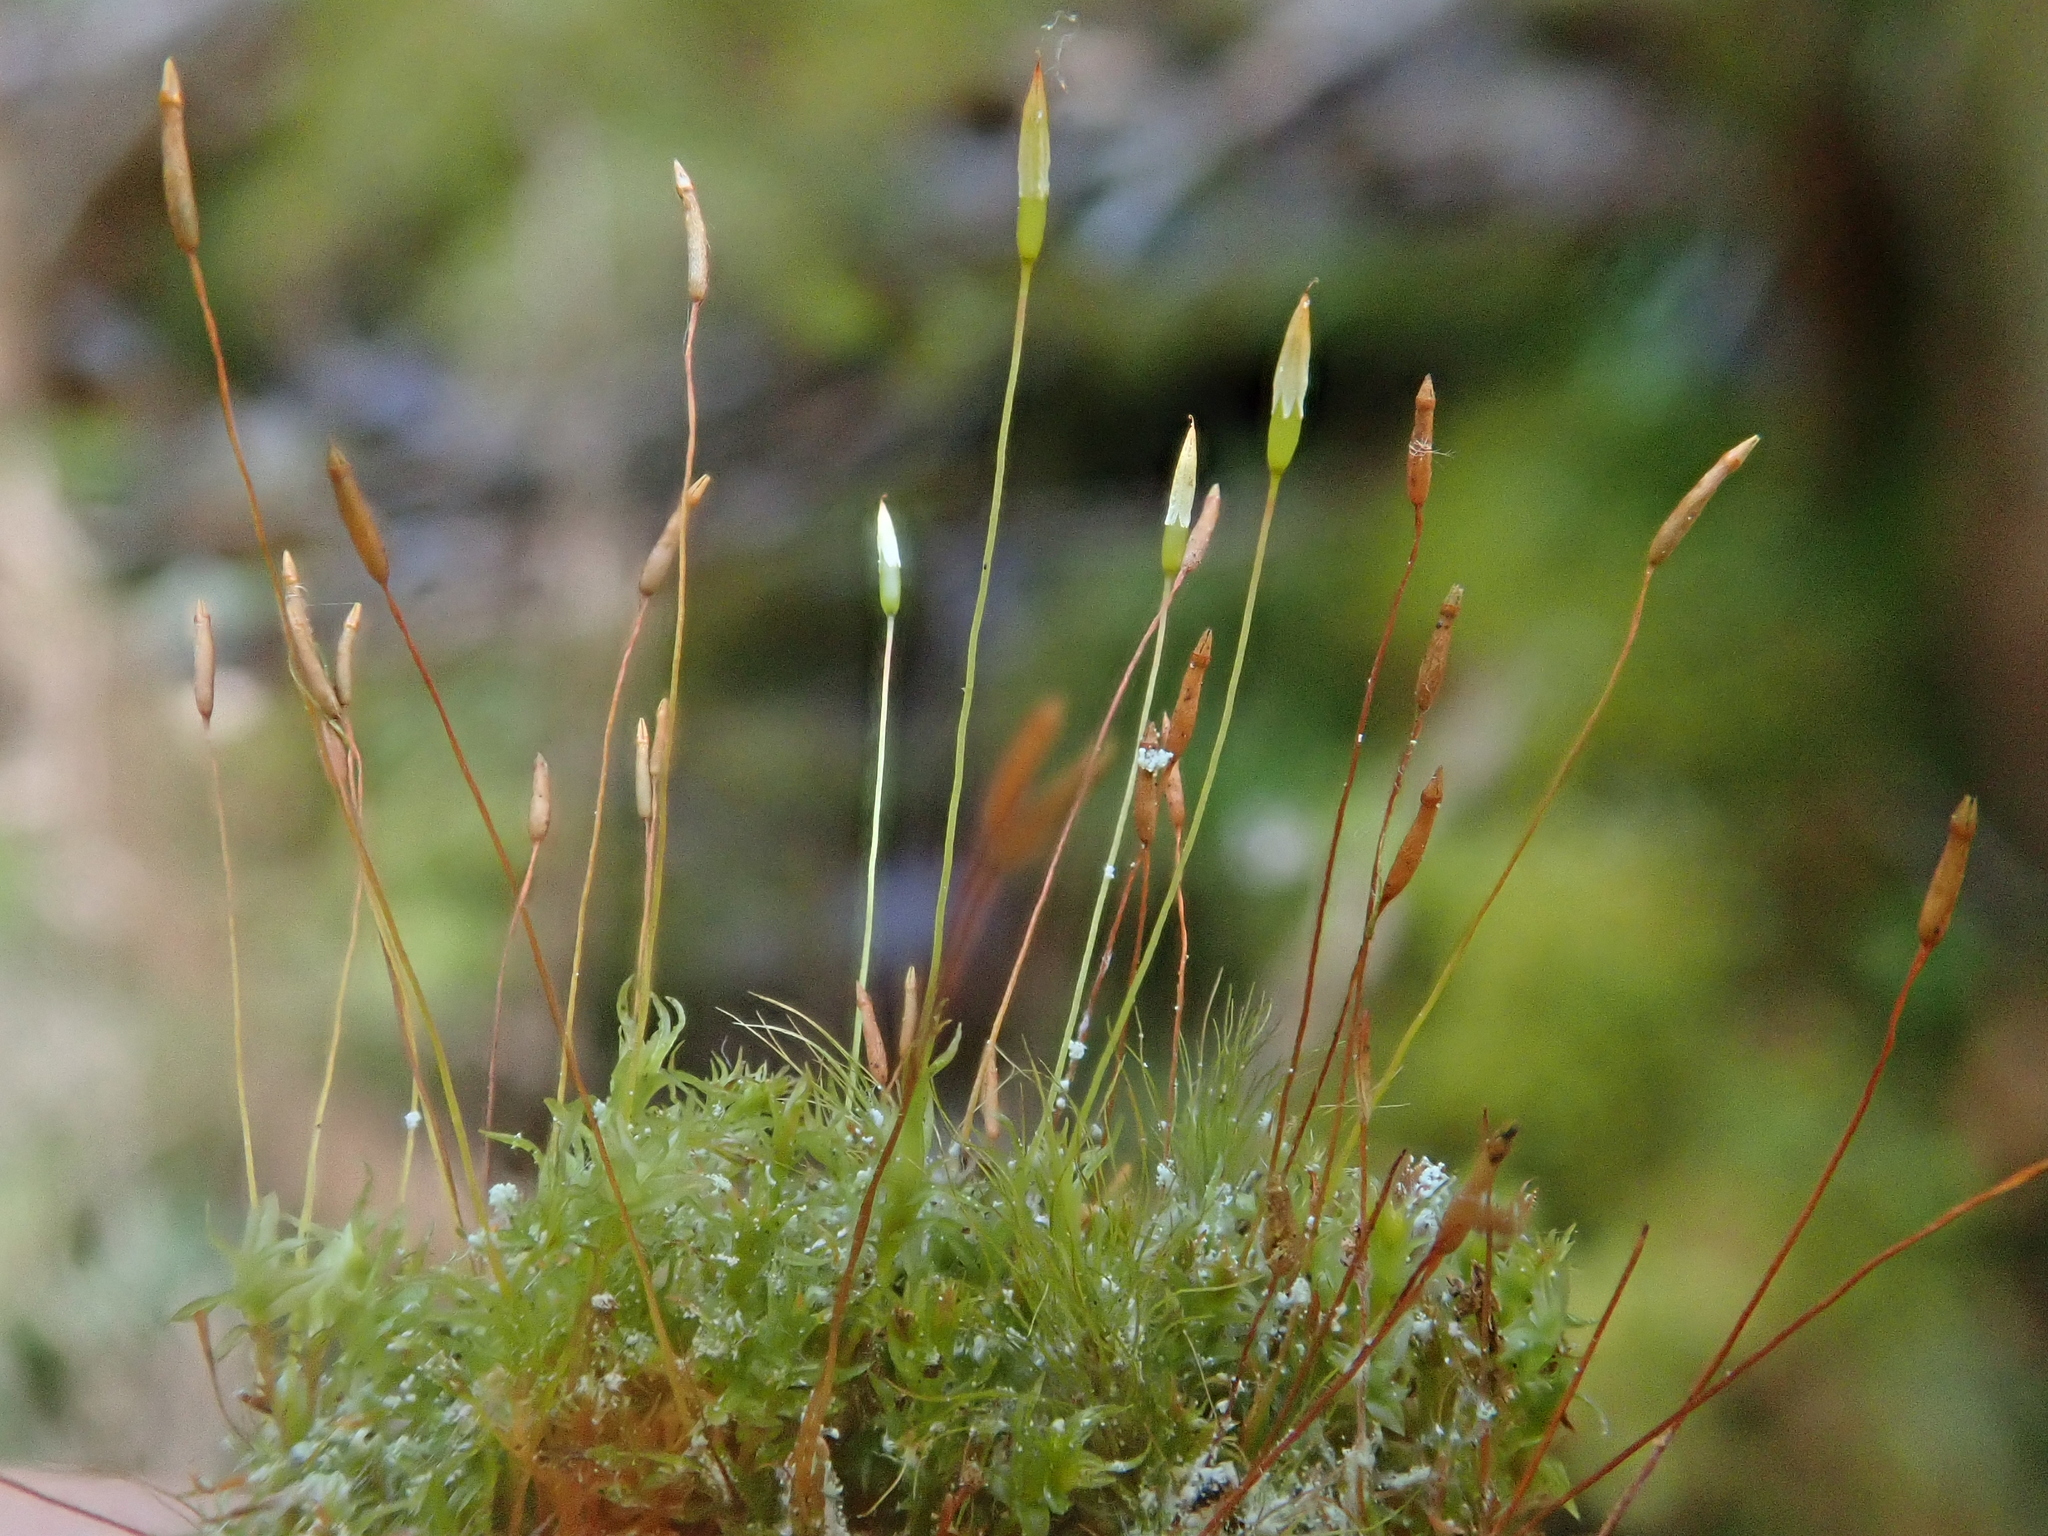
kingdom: Plantae
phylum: Bryophyta
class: Polytrichopsida
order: Tetraphidales
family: Tetraphidaceae
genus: Tetraphis
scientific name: Tetraphis pellucida
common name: Common four-toothed moss
